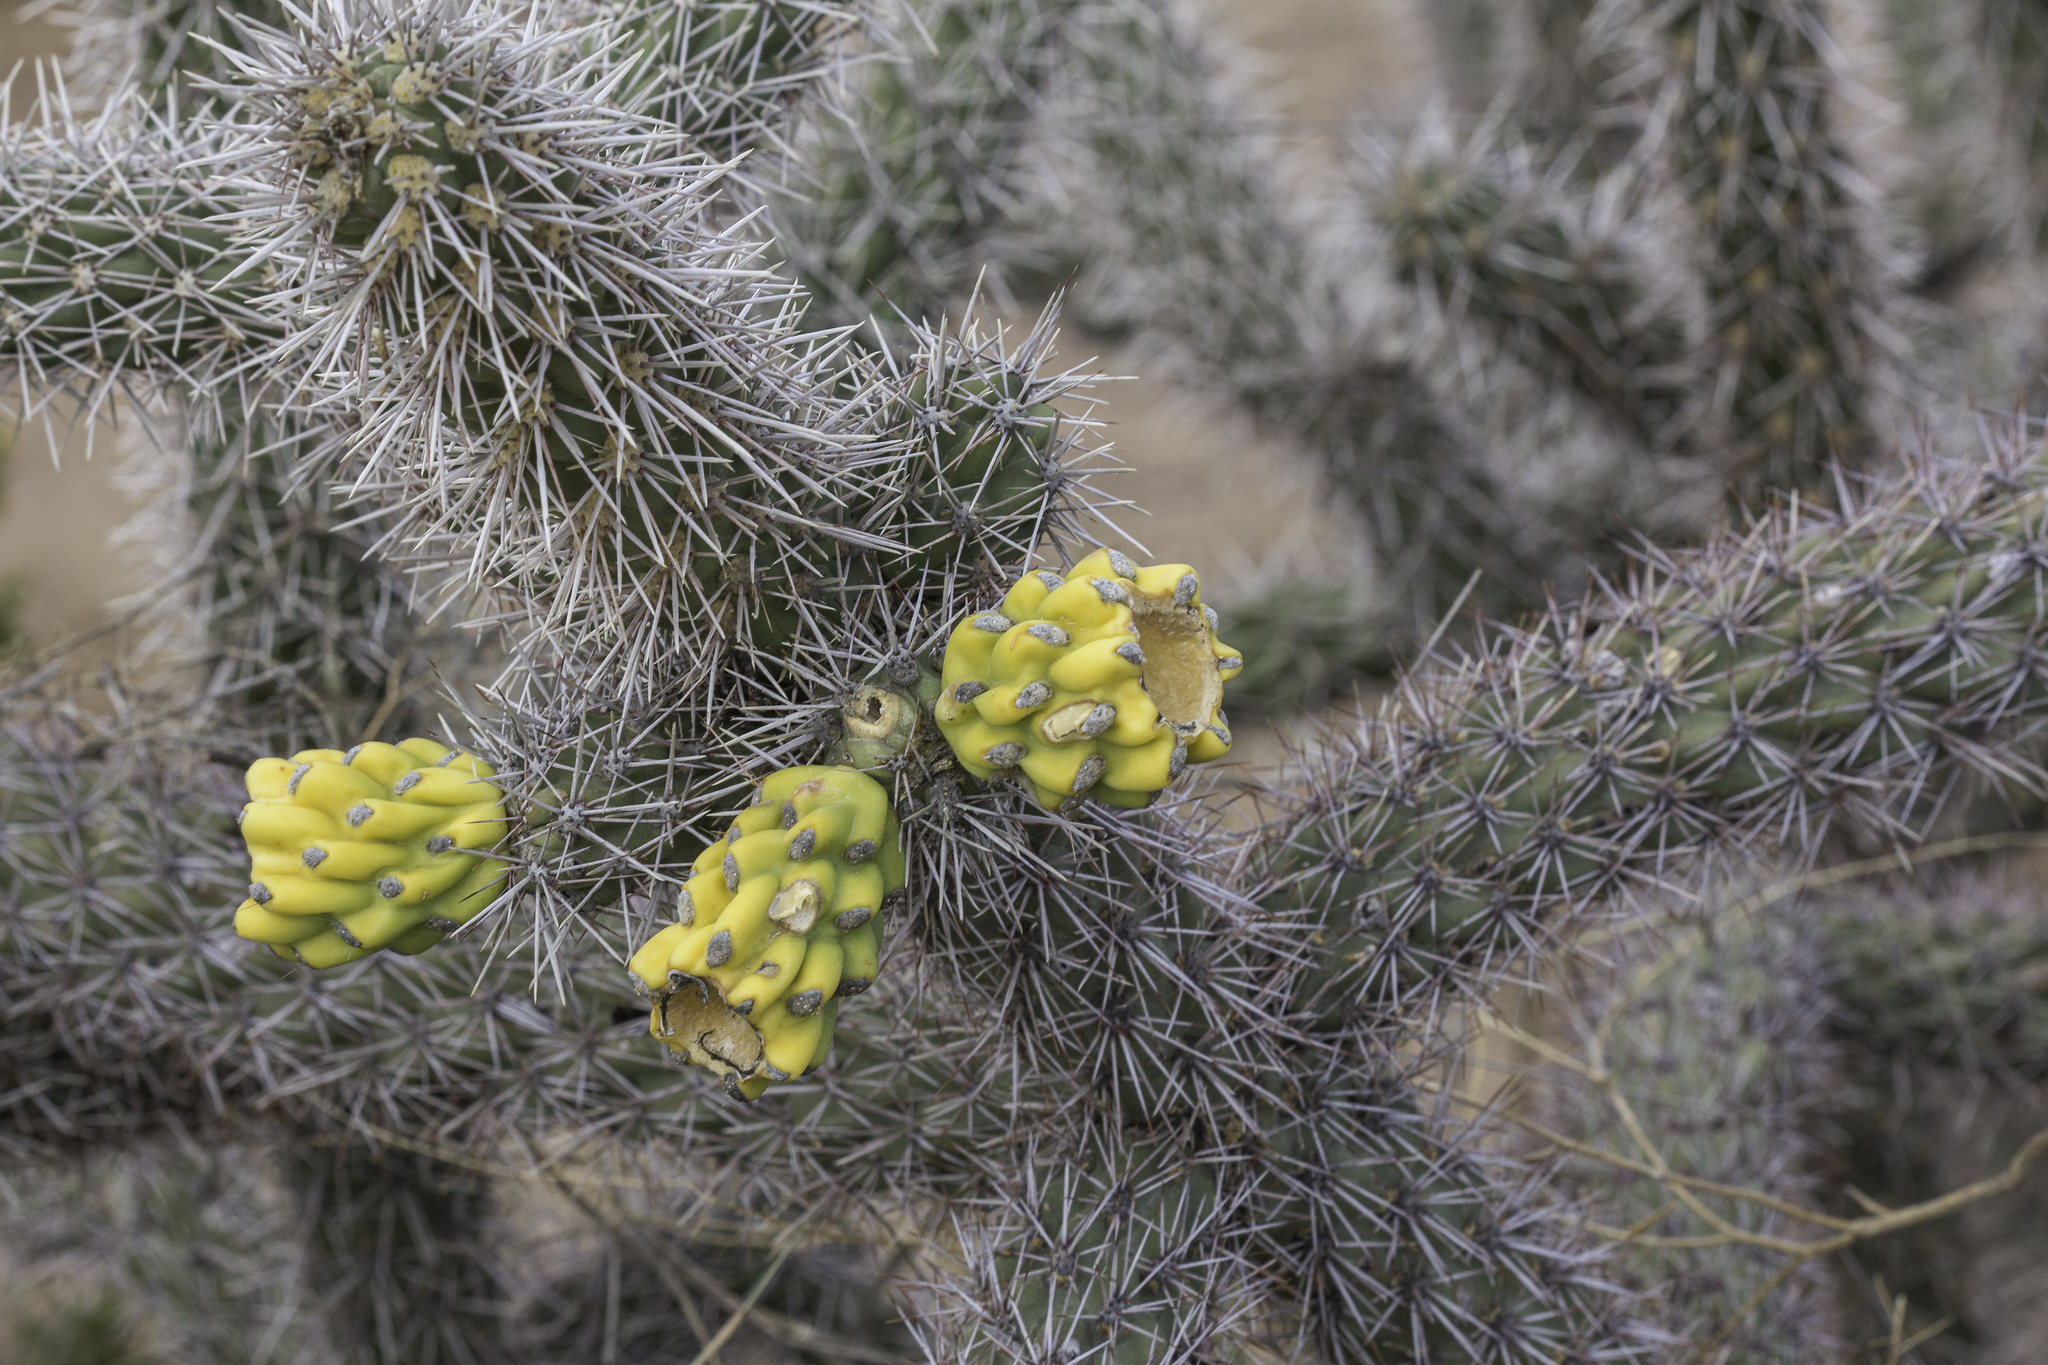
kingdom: Plantae
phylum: Tracheophyta
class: Magnoliopsida
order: Caryophyllales
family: Cactaceae
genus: Cylindropuntia
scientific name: Cylindropuntia imbricata
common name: Candelabrum cactus
